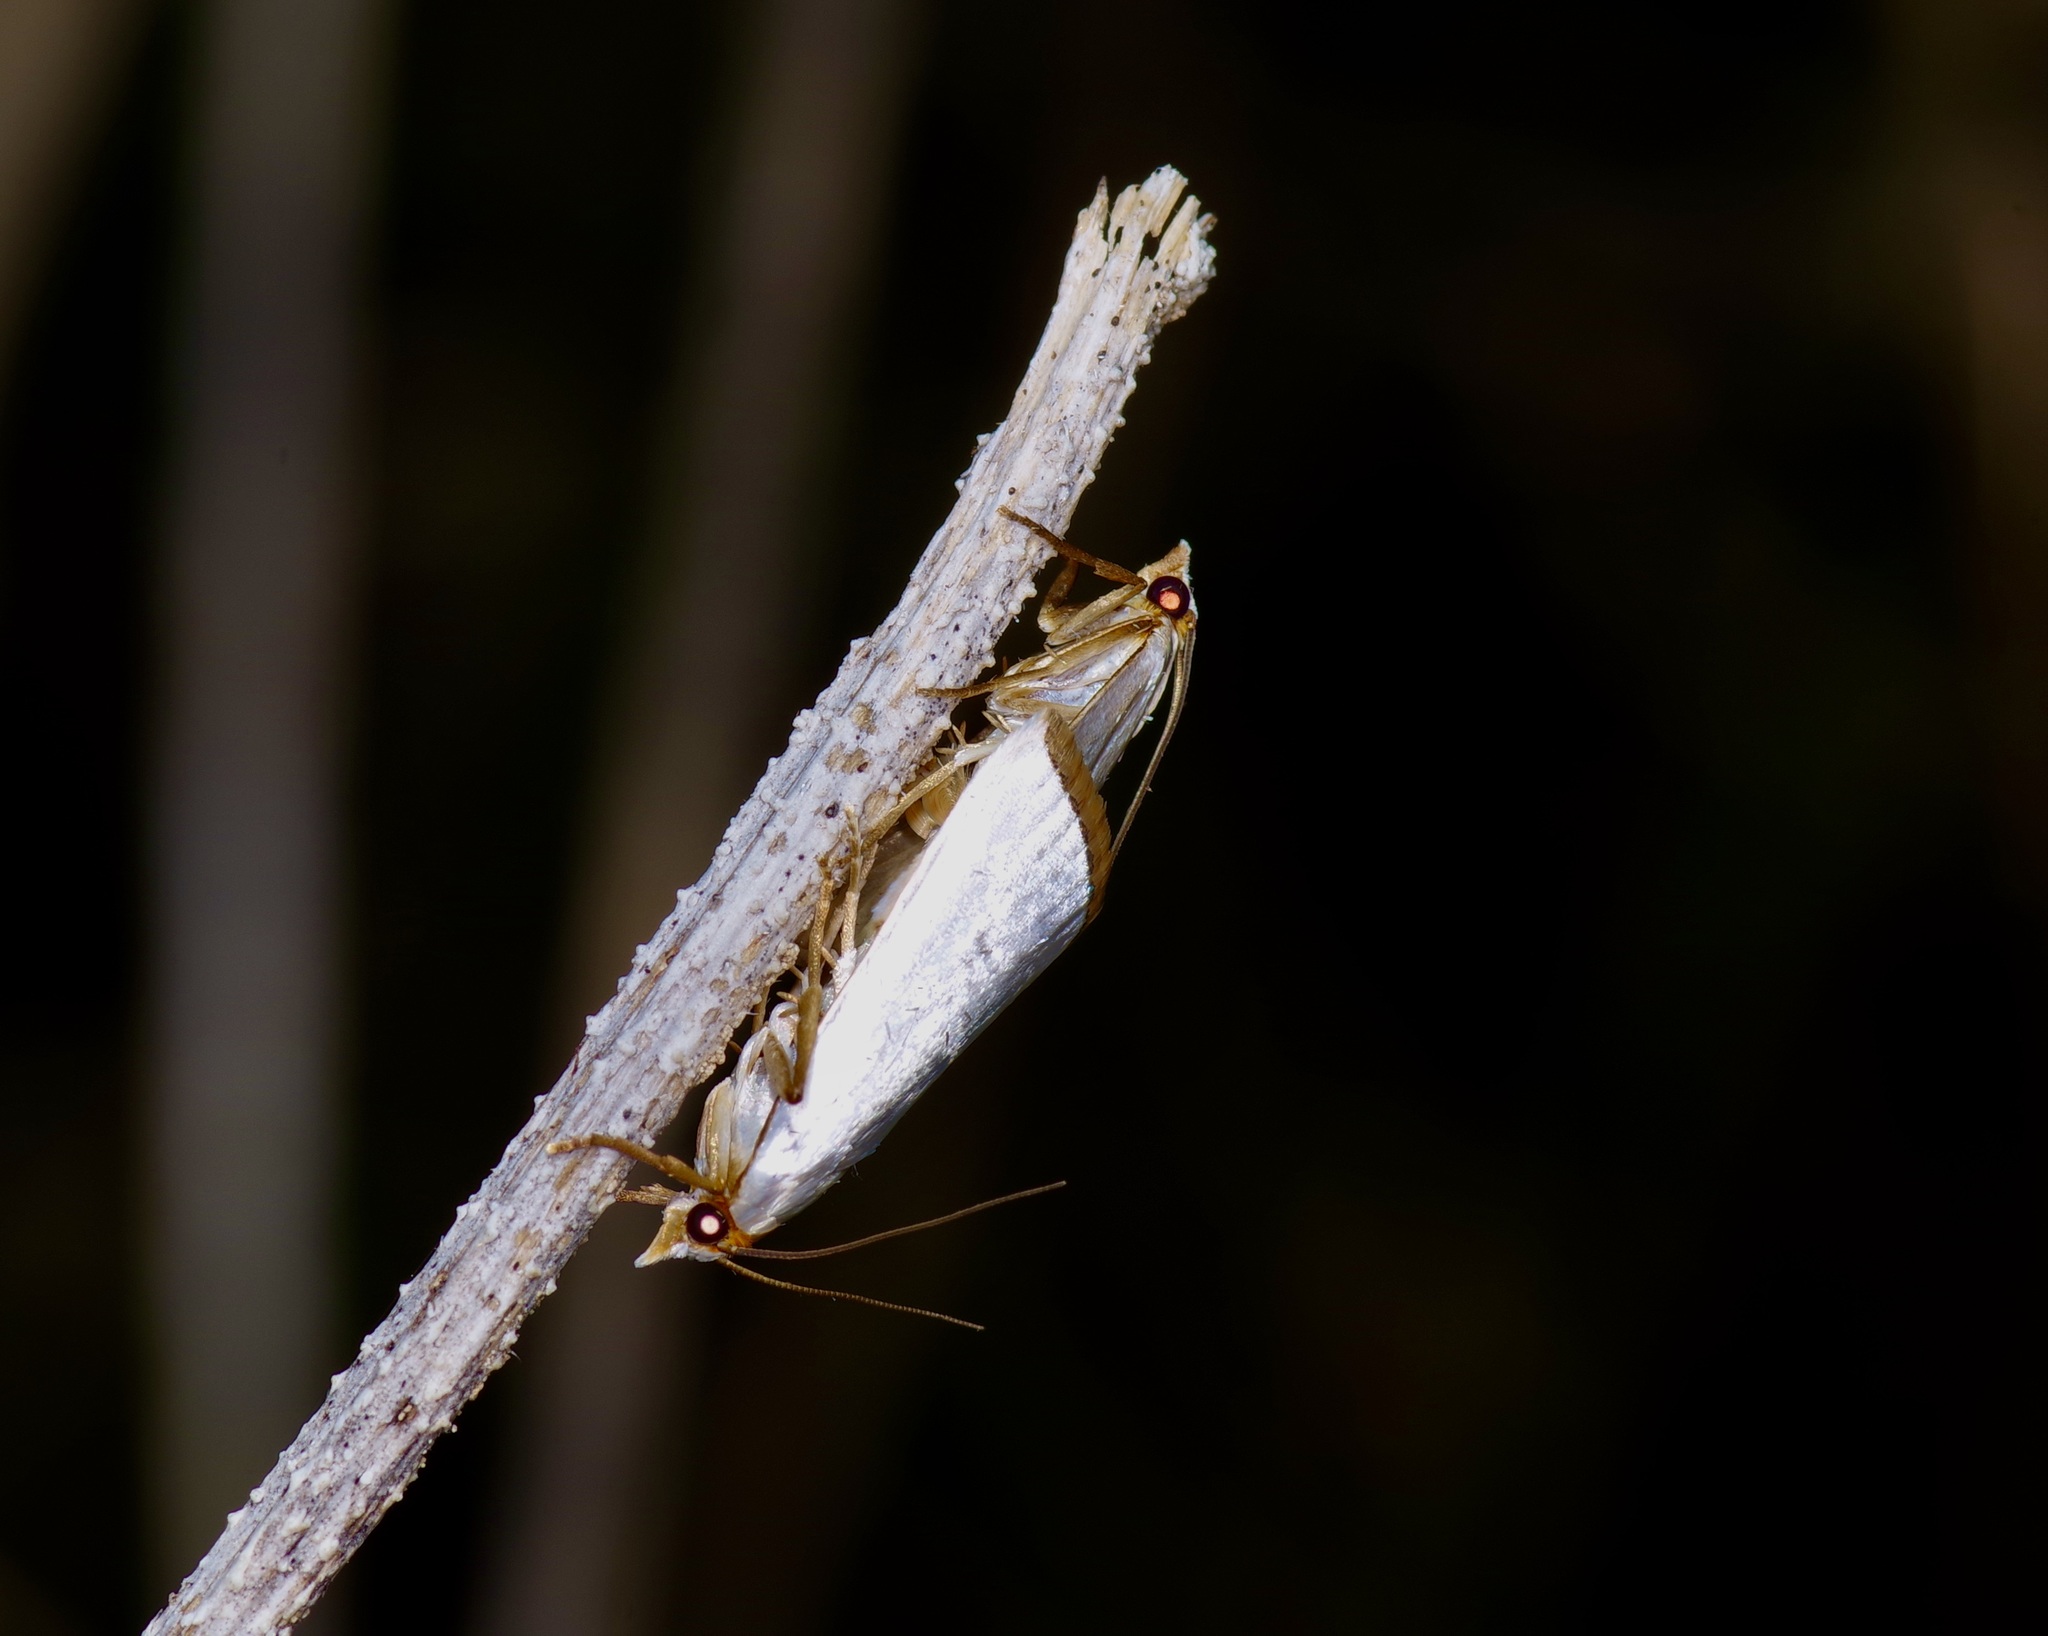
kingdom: Animalia
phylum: Arthropoda
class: Insecta
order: Lepidoptera
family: Crambidae
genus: Argyria
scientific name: Argyria nivalis
